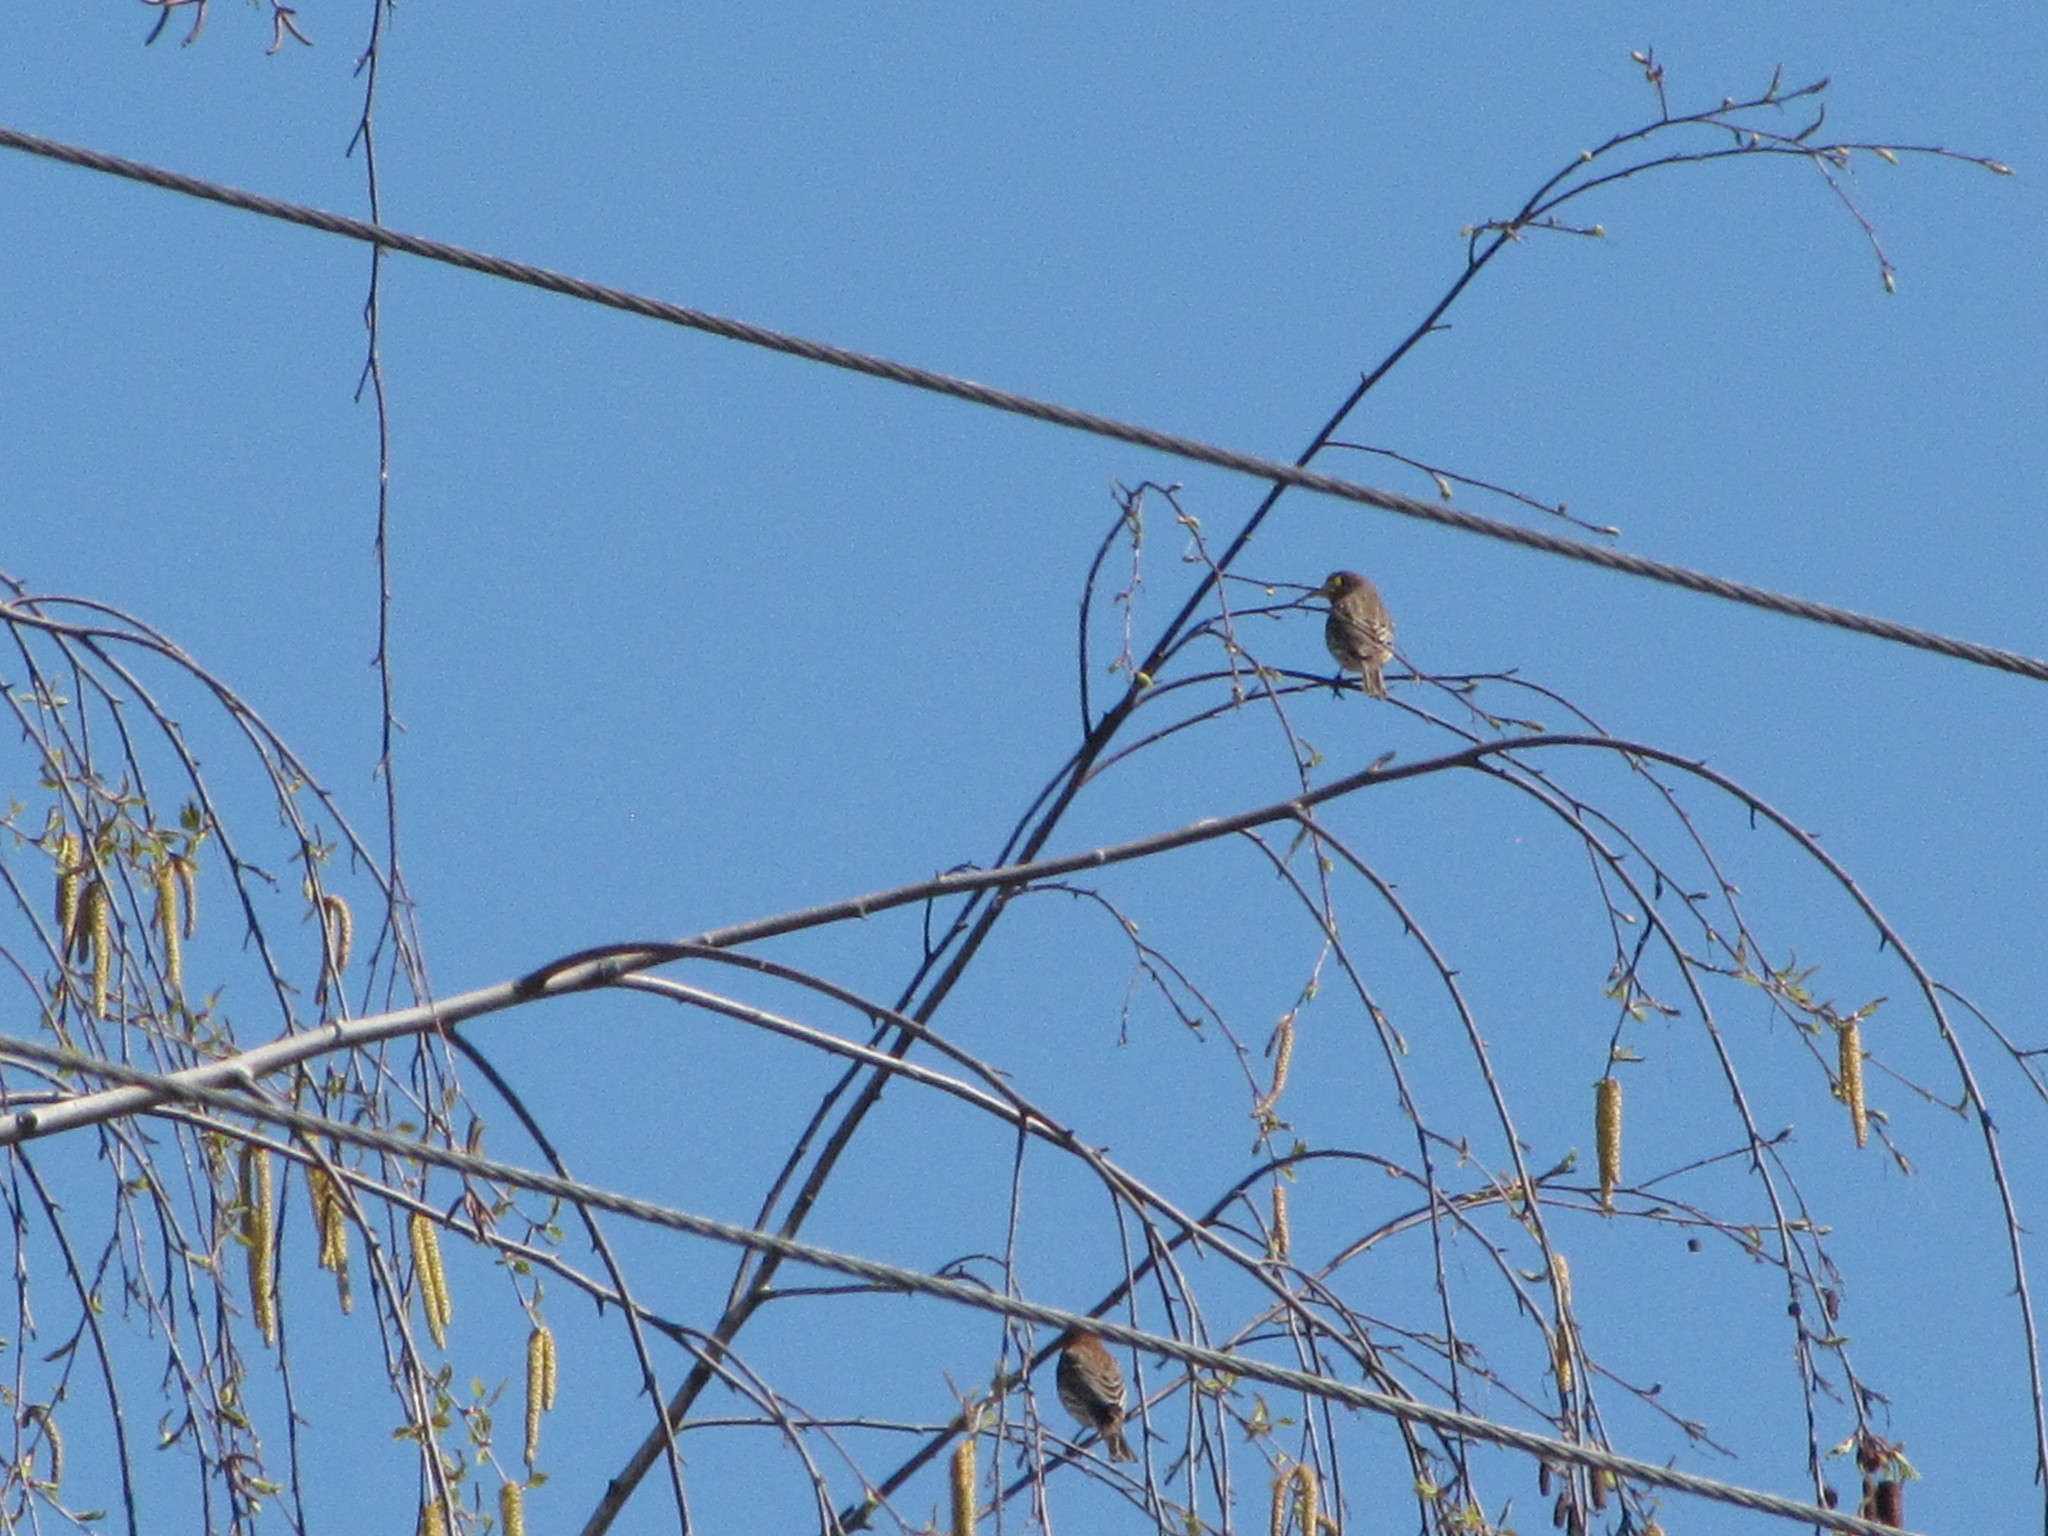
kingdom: Animalia
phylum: Chordata
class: Aves
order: Passeriformes
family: Turdidae
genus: Turdus
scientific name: Turdus migratorius
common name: American robin
